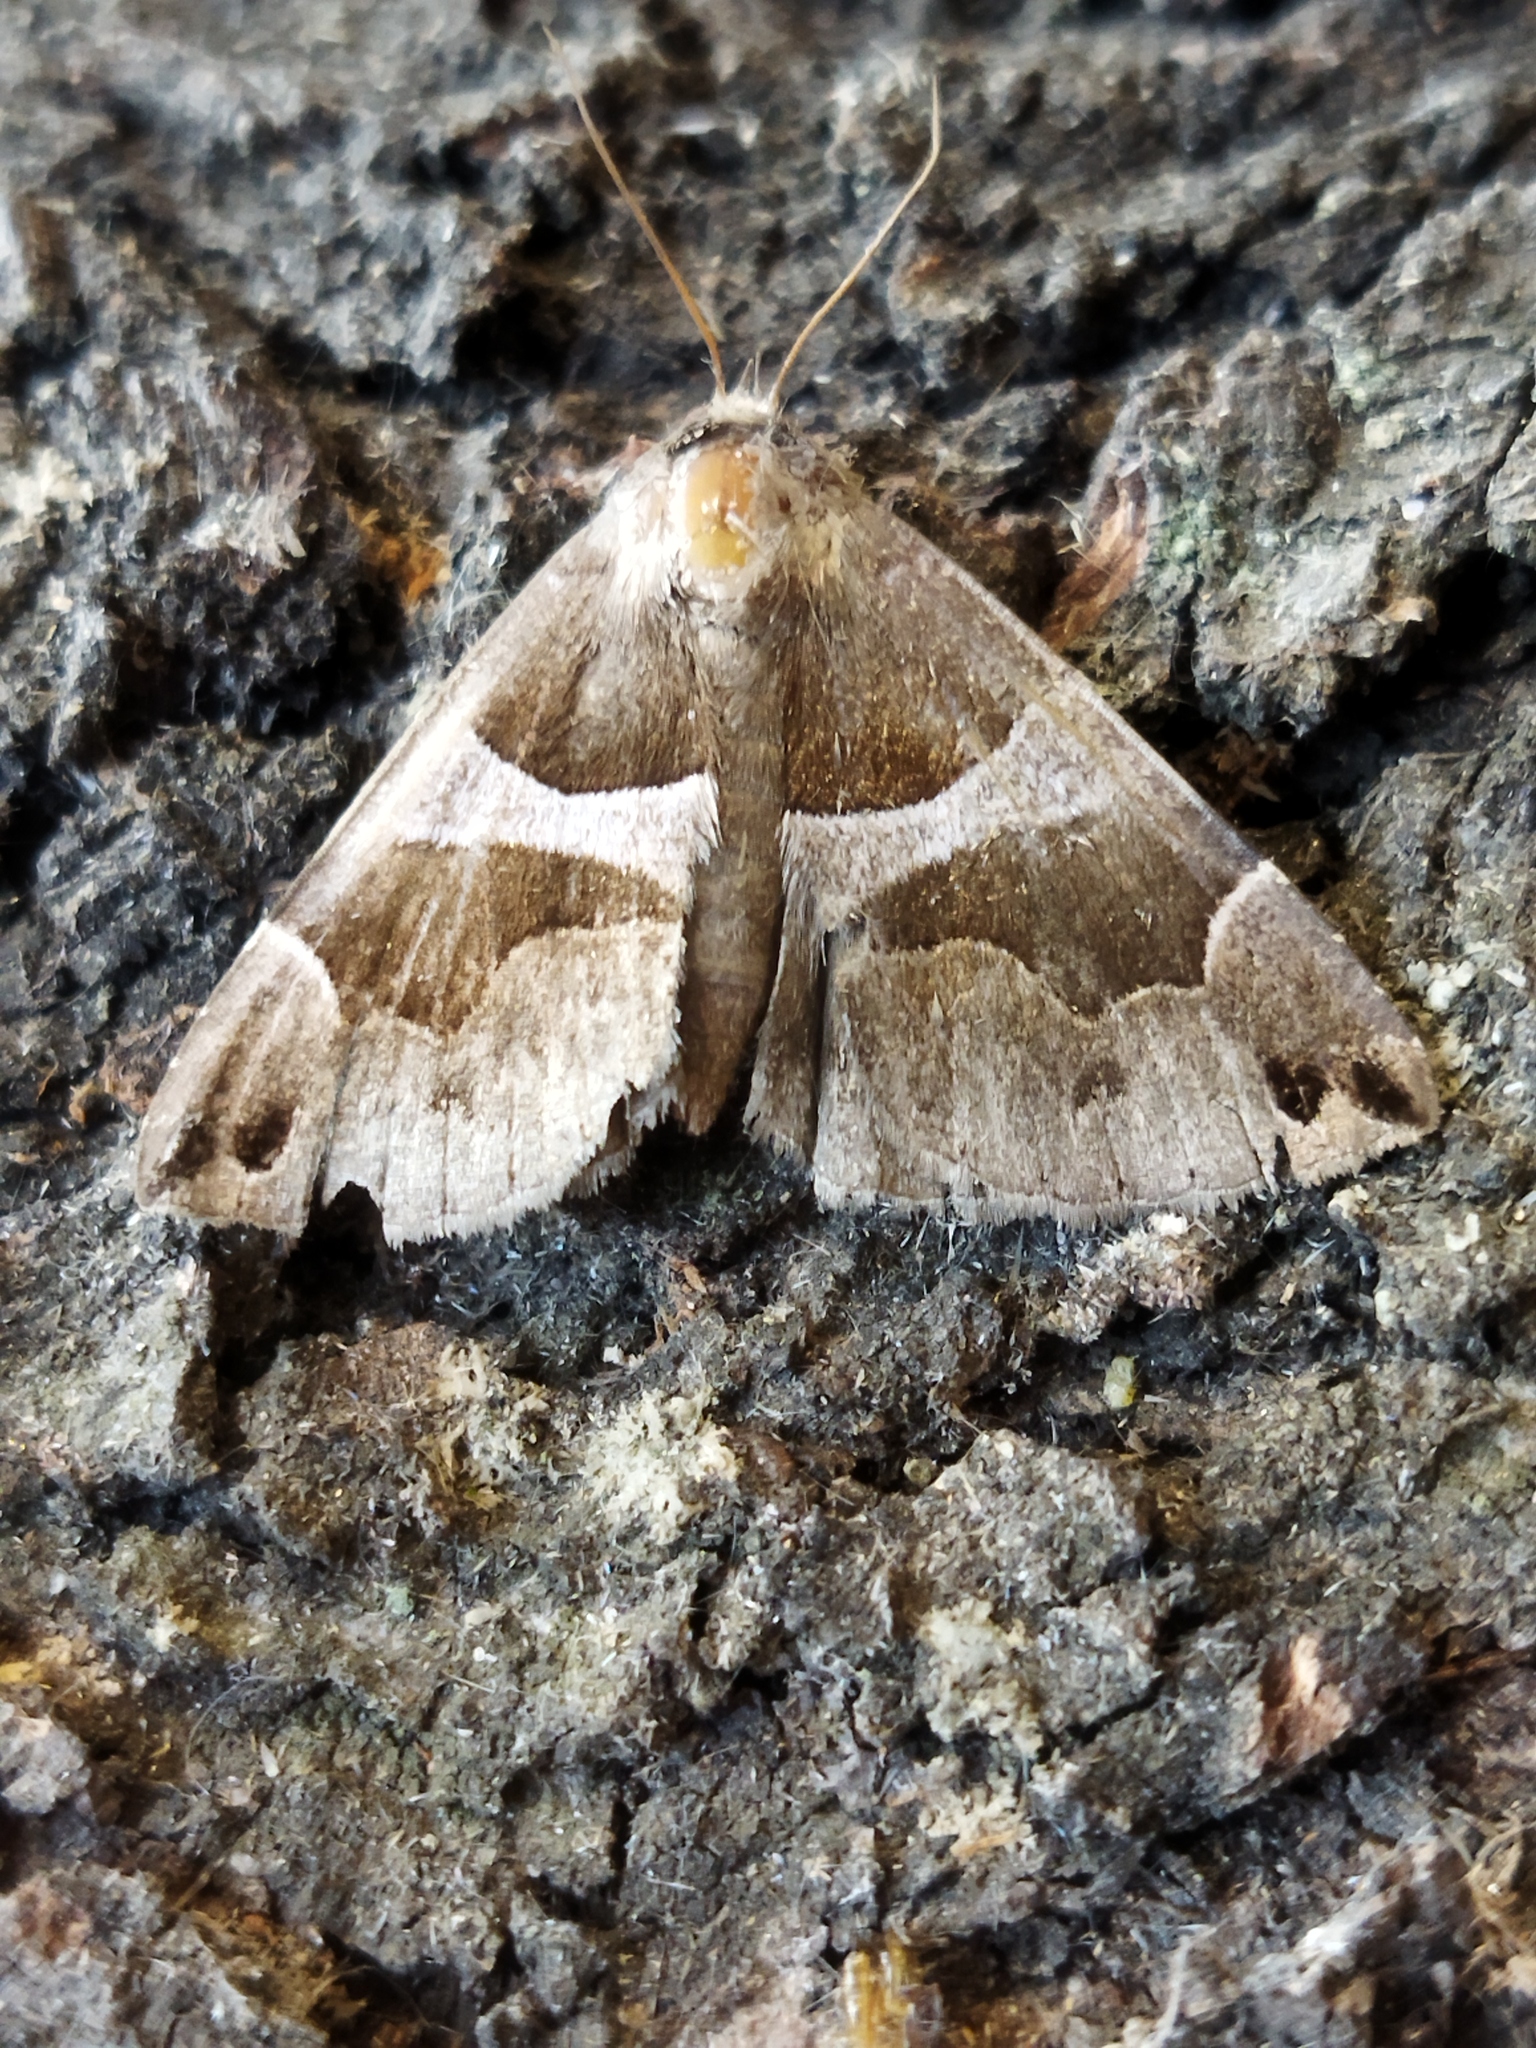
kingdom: Animalia
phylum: Arthropoda
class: Insecta
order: Lepidoptera
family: Erebidae
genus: Dysgonia
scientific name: Dysgonia algira
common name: Passenger
